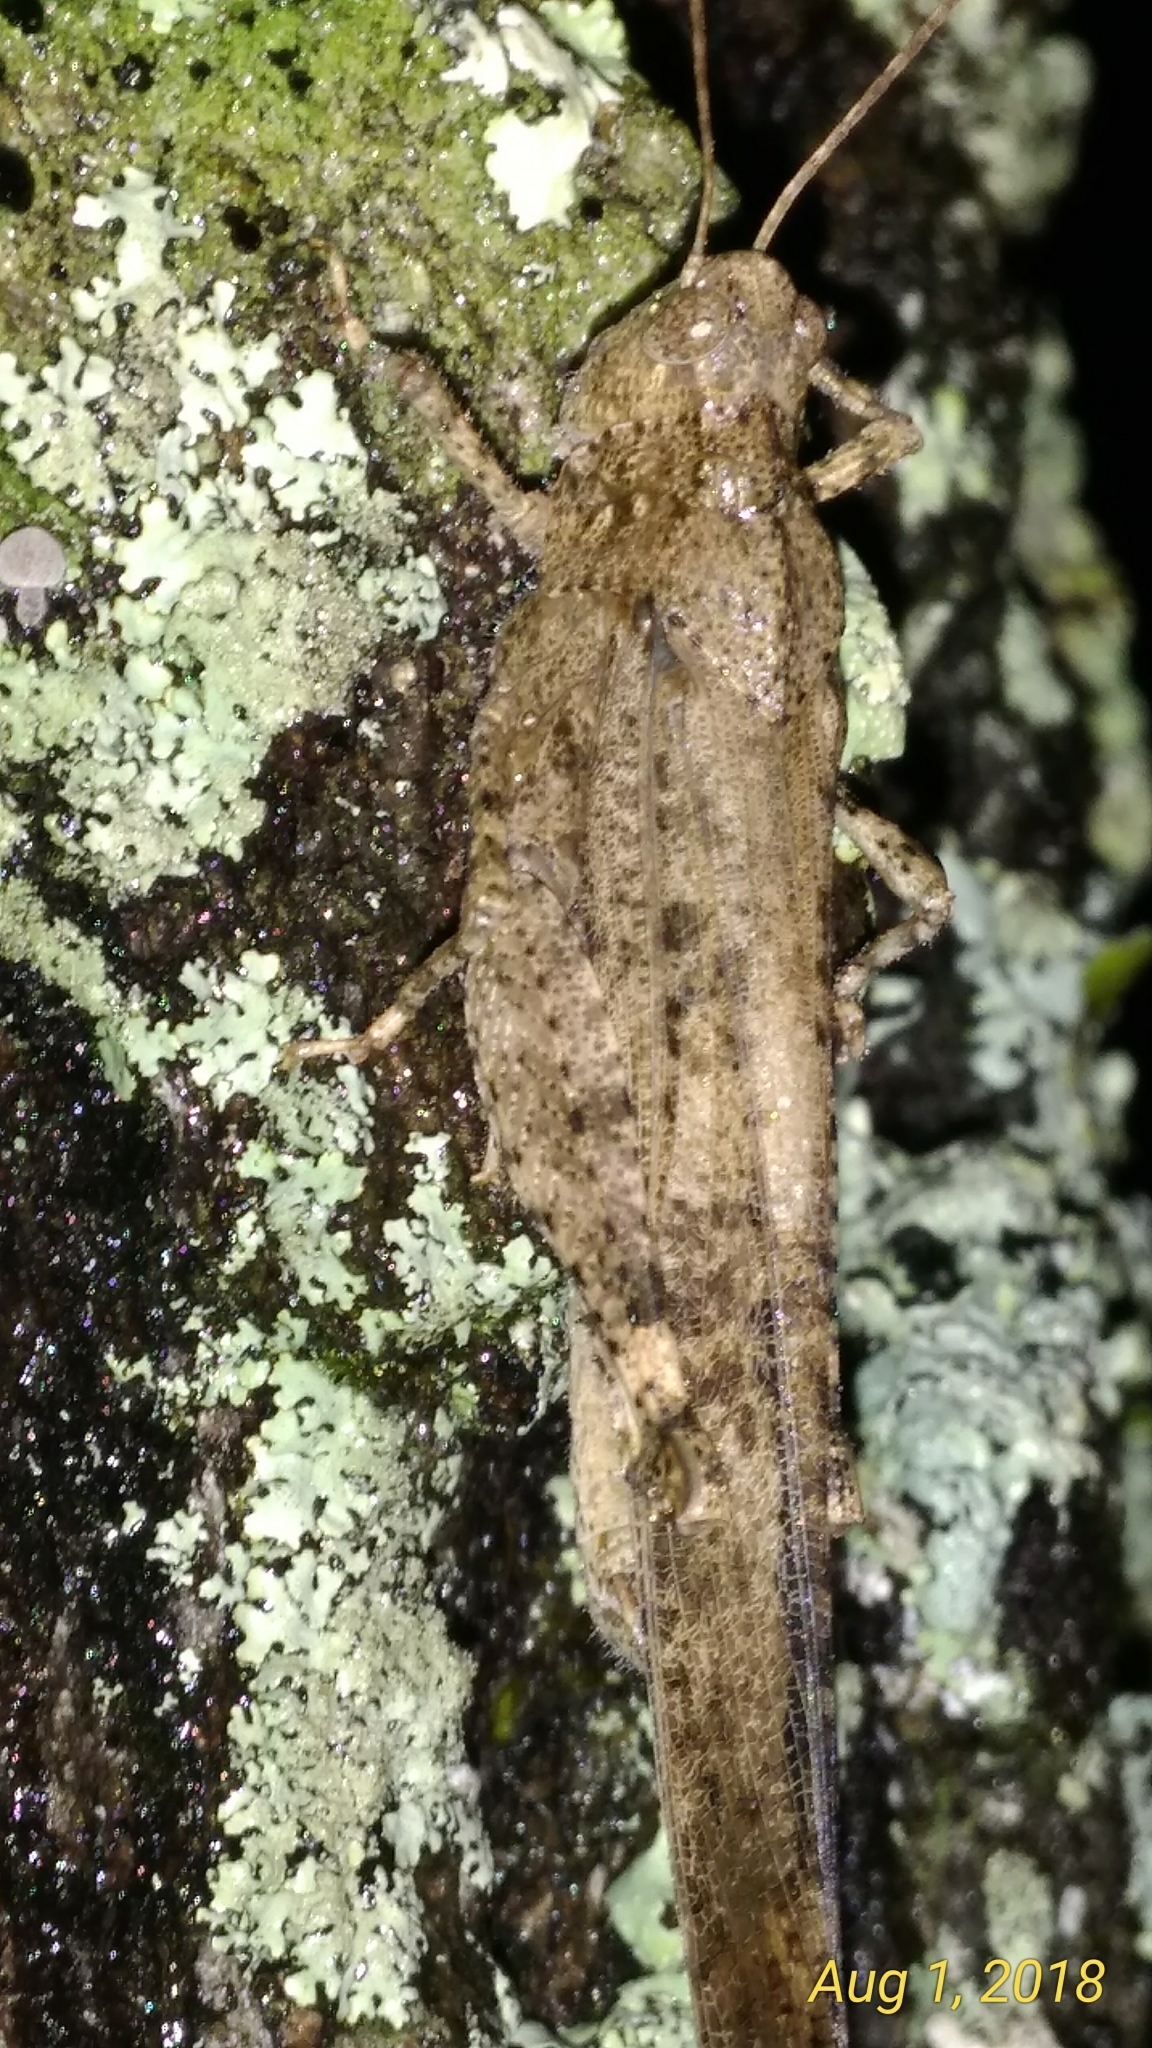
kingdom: Animalia
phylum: Arthropoda
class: Insecta
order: Orthoptera
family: Acrididae
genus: Dissosteira
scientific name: Dissosteira carolina
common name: Carolina grasshopper
